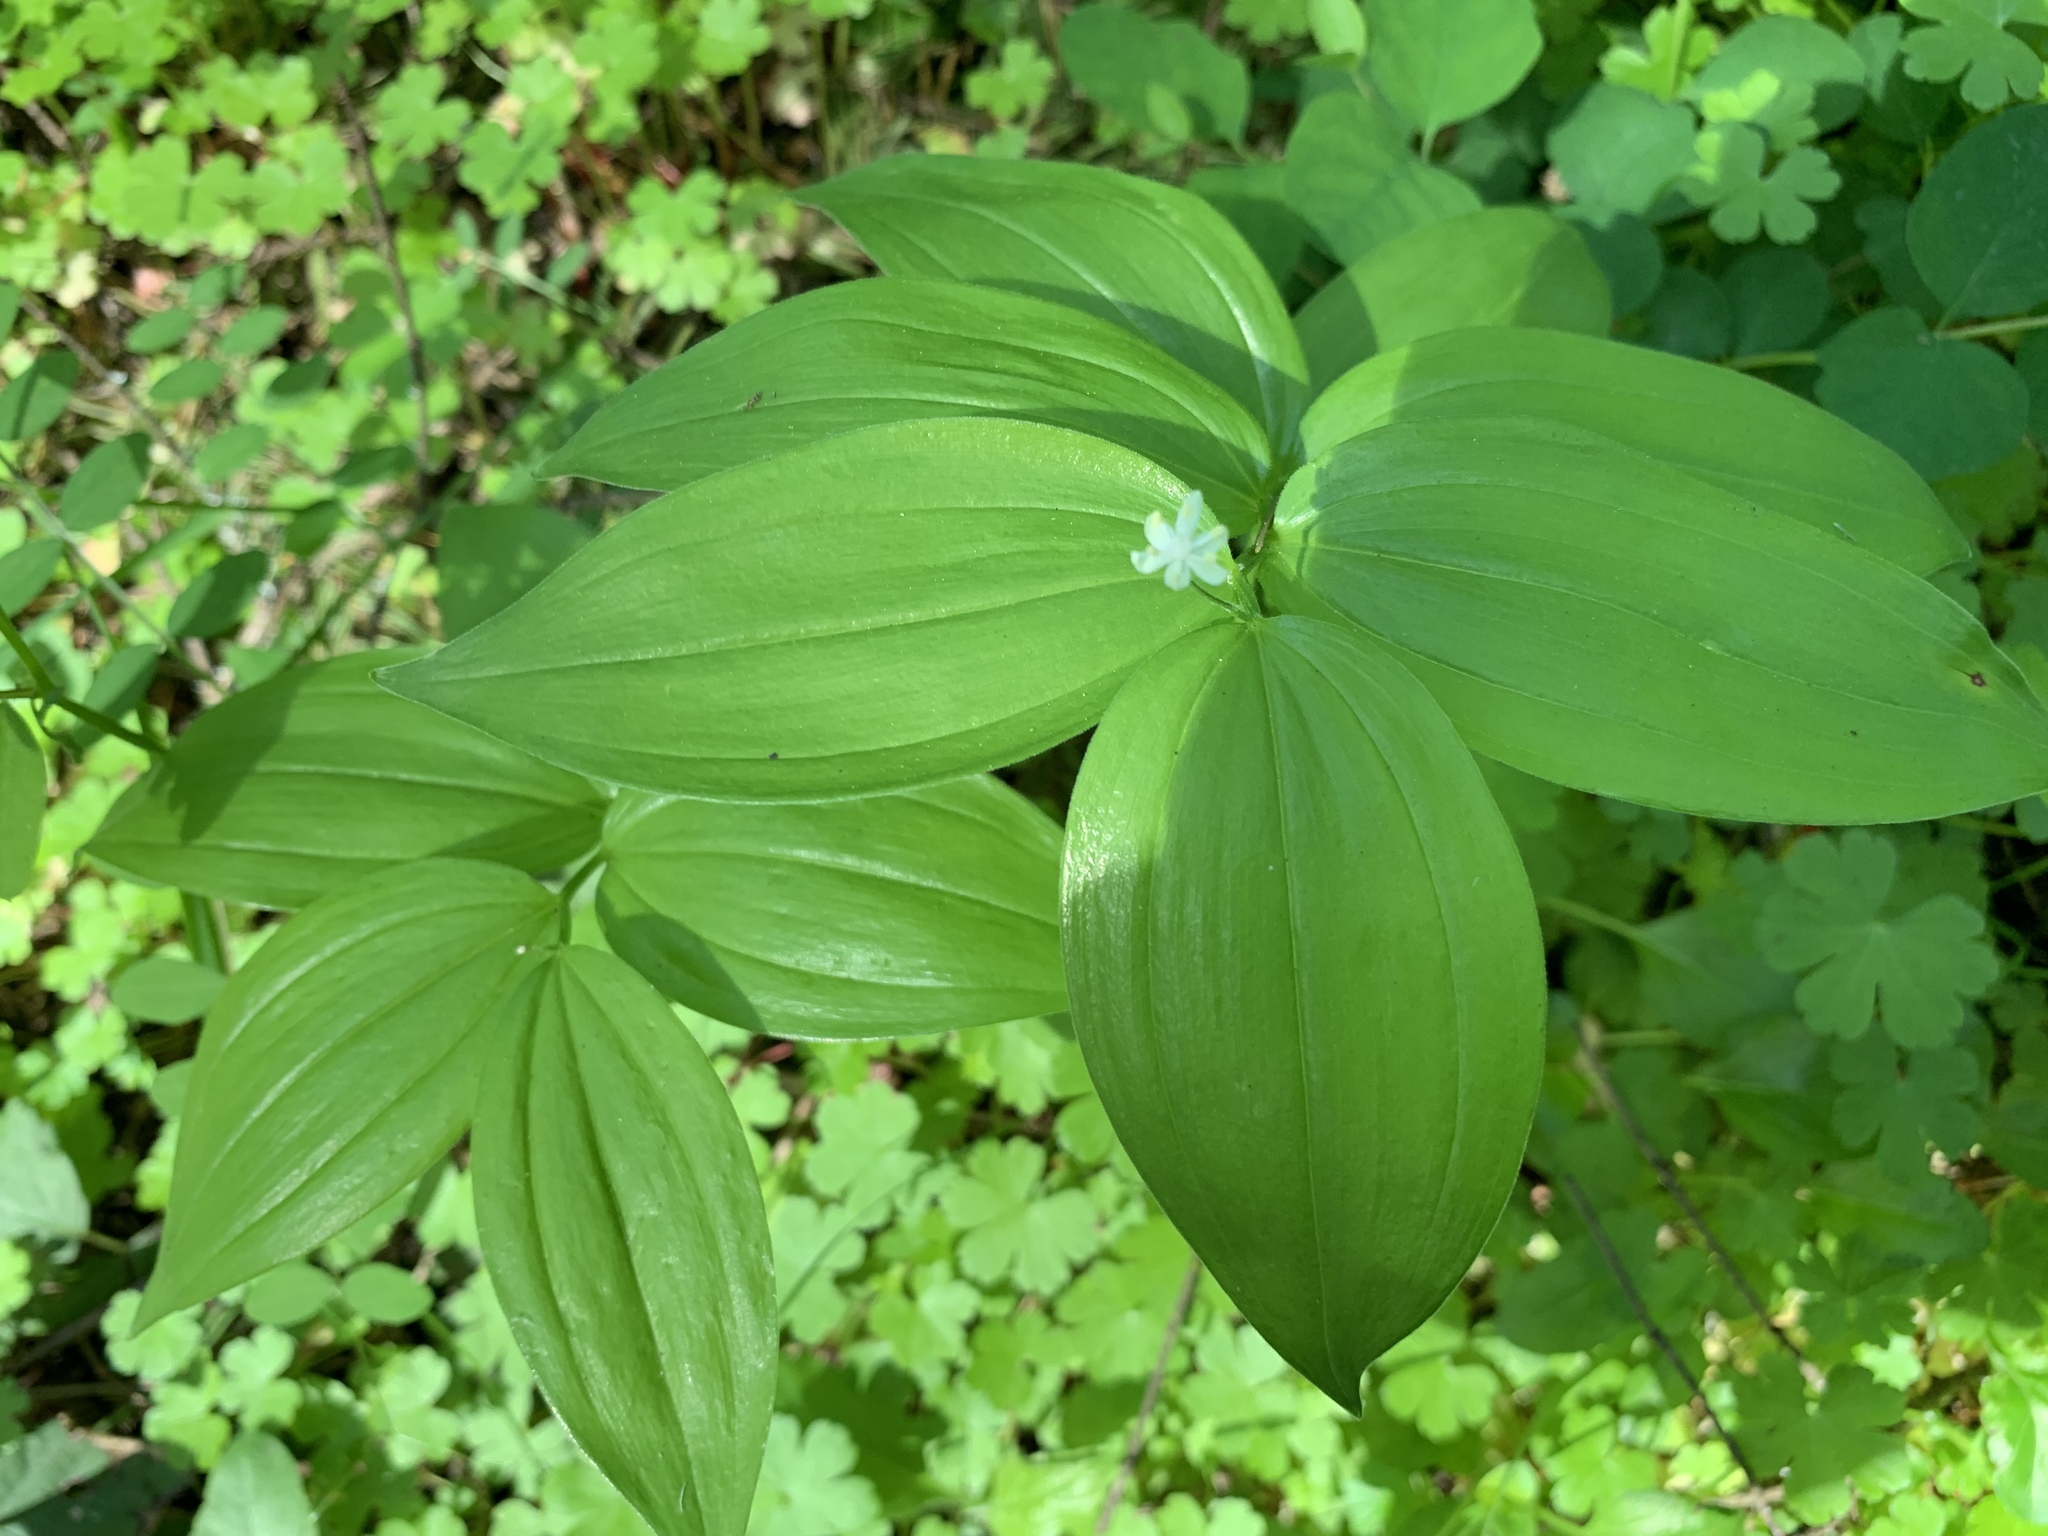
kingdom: Plantae
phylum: Tracheophyta
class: Liliopsida
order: Asparagales
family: Asparagaceae
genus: Maianthemum
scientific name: Maianthemum stellatum
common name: Little false solomon's seal
